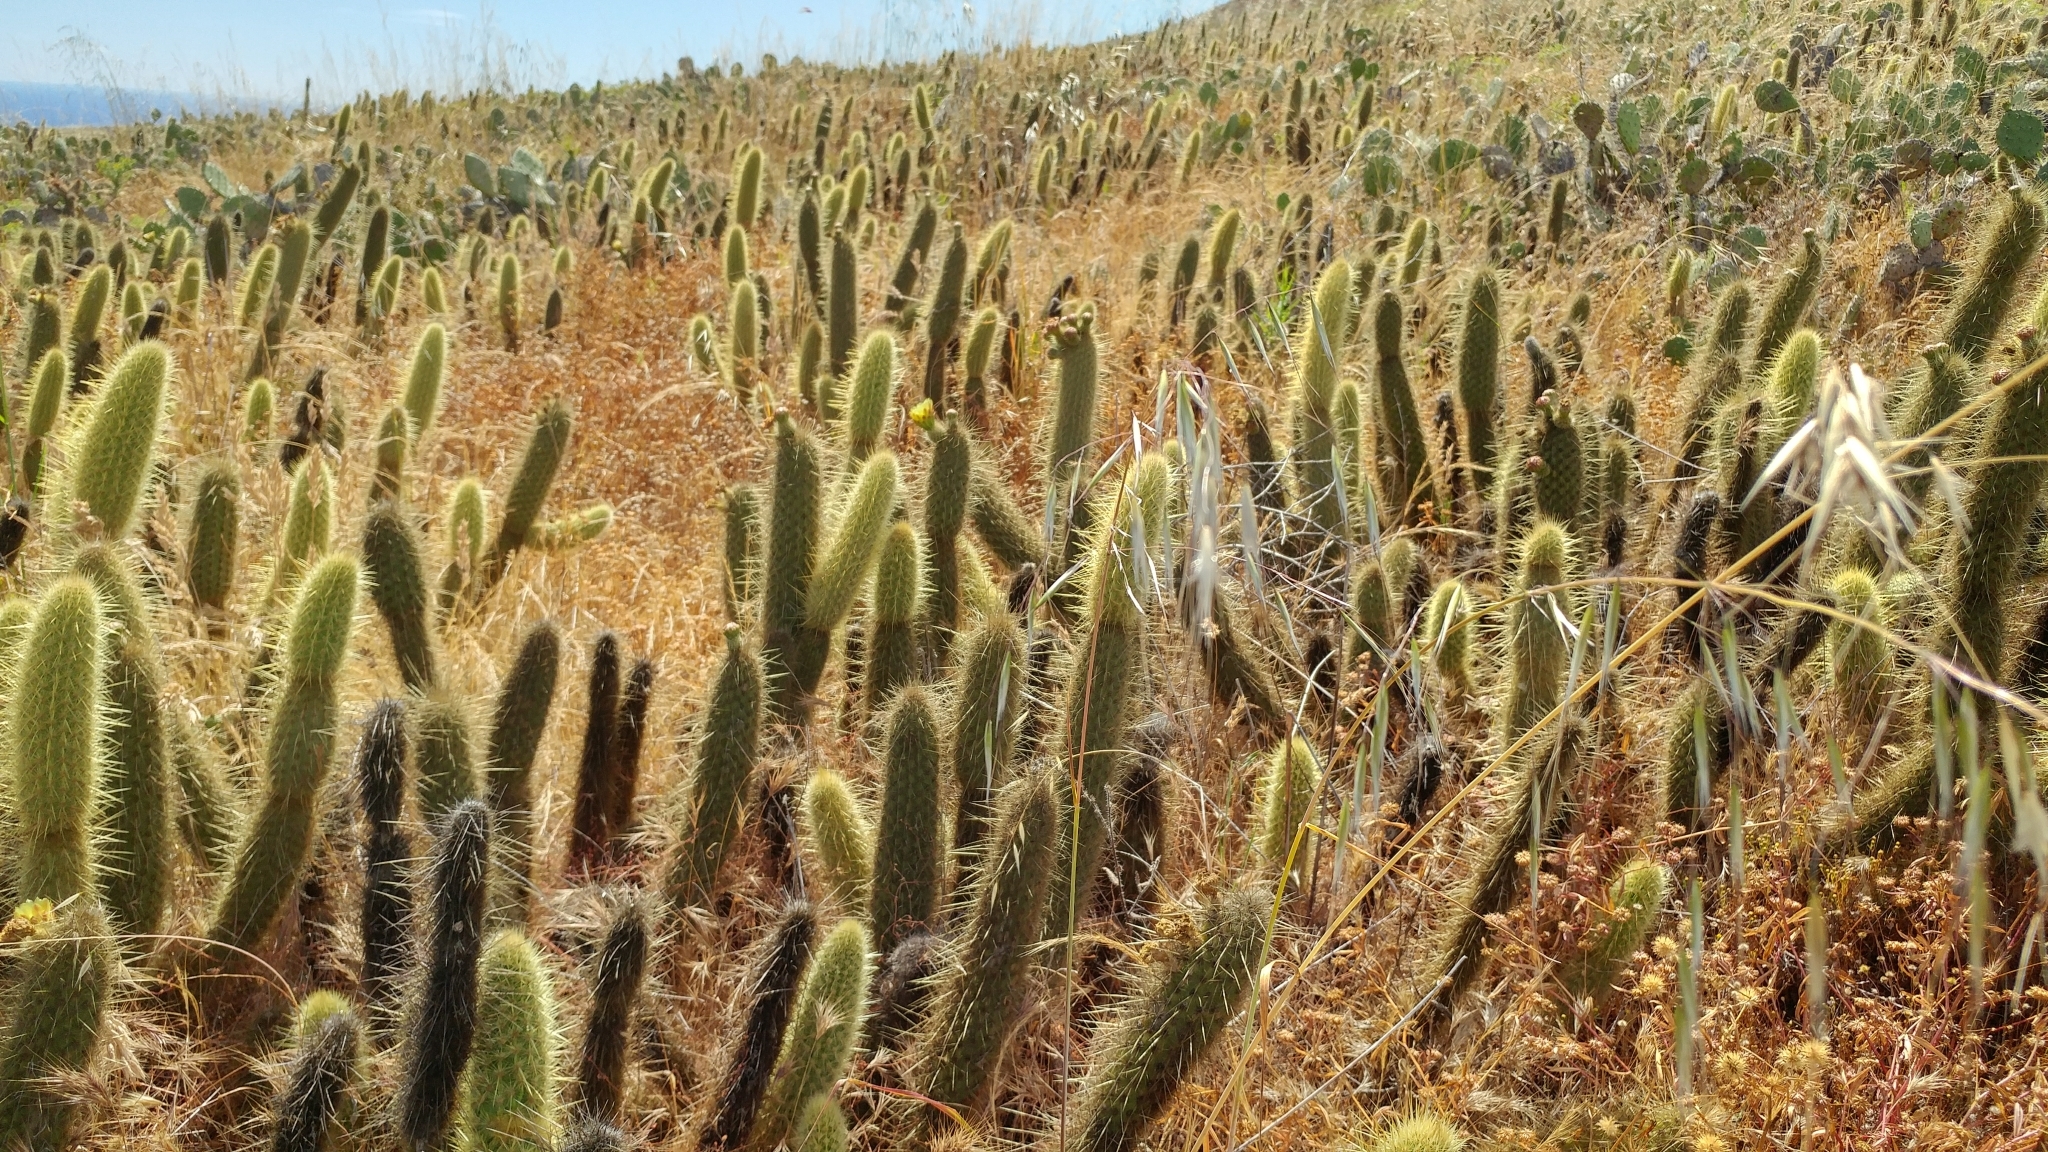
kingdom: Plantae
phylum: Tracheophyta
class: Magnoliopsida
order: Caryophyllales
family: Cactaceae
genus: Bergerocactus
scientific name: Bergerocactus emoryi
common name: Golden snakecactus
